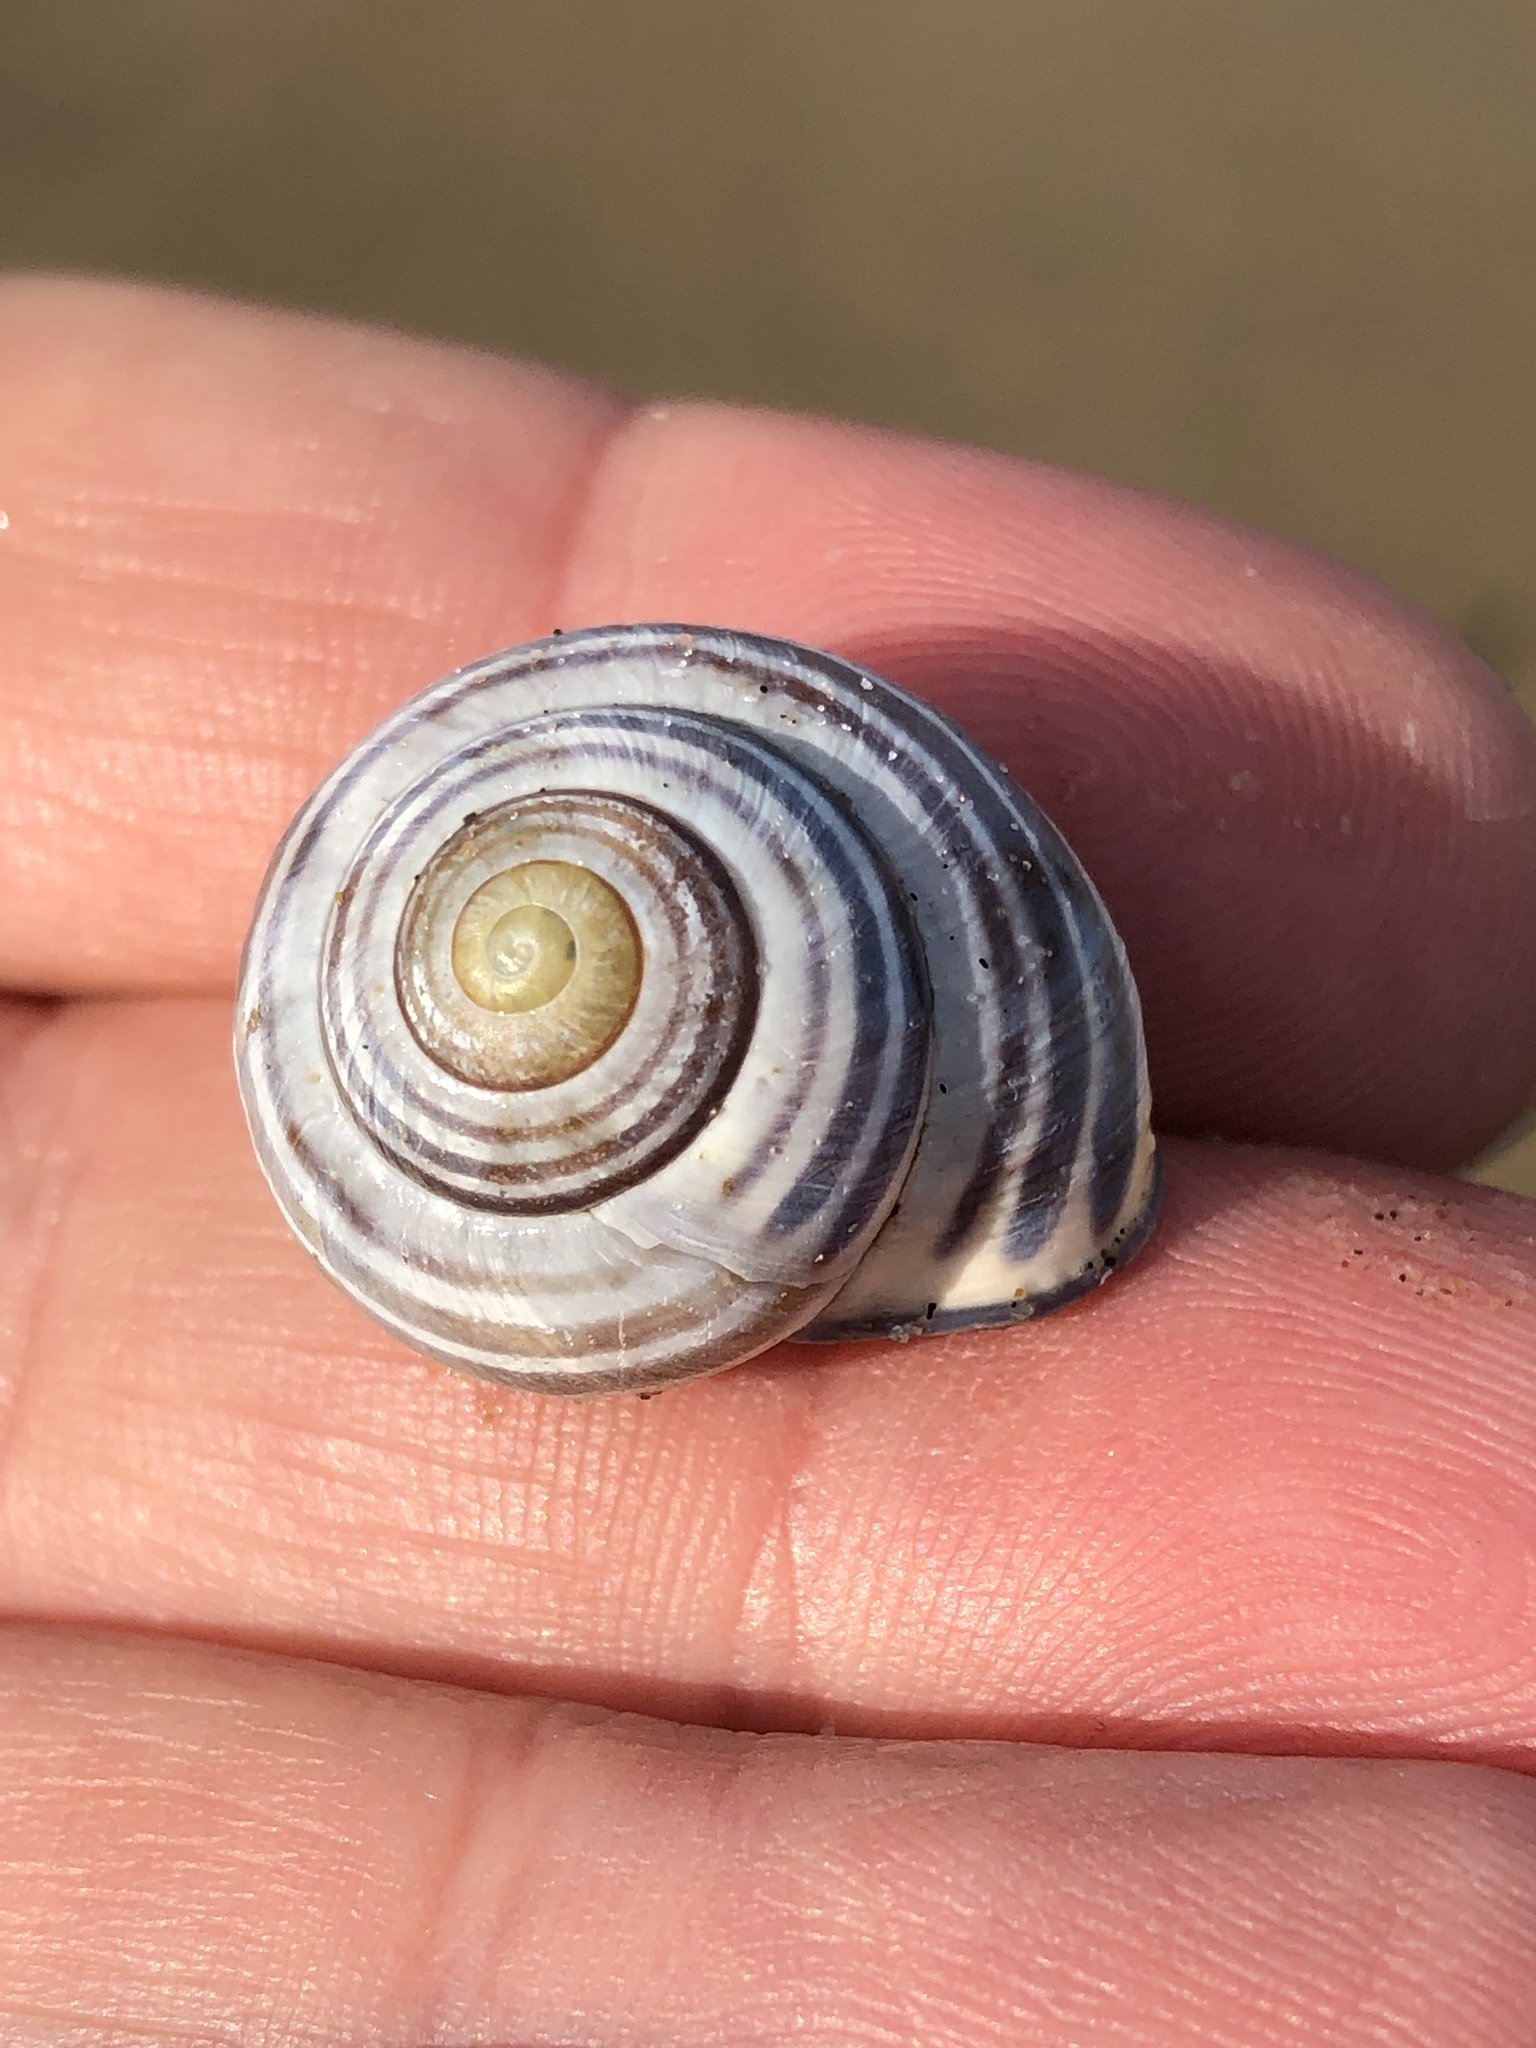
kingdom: Animalia
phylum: Mollusca
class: Gastropoda
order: Stylommatophora
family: Helicidae
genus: Cepaea
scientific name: Cepaea nemoralis
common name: Grovesnail
